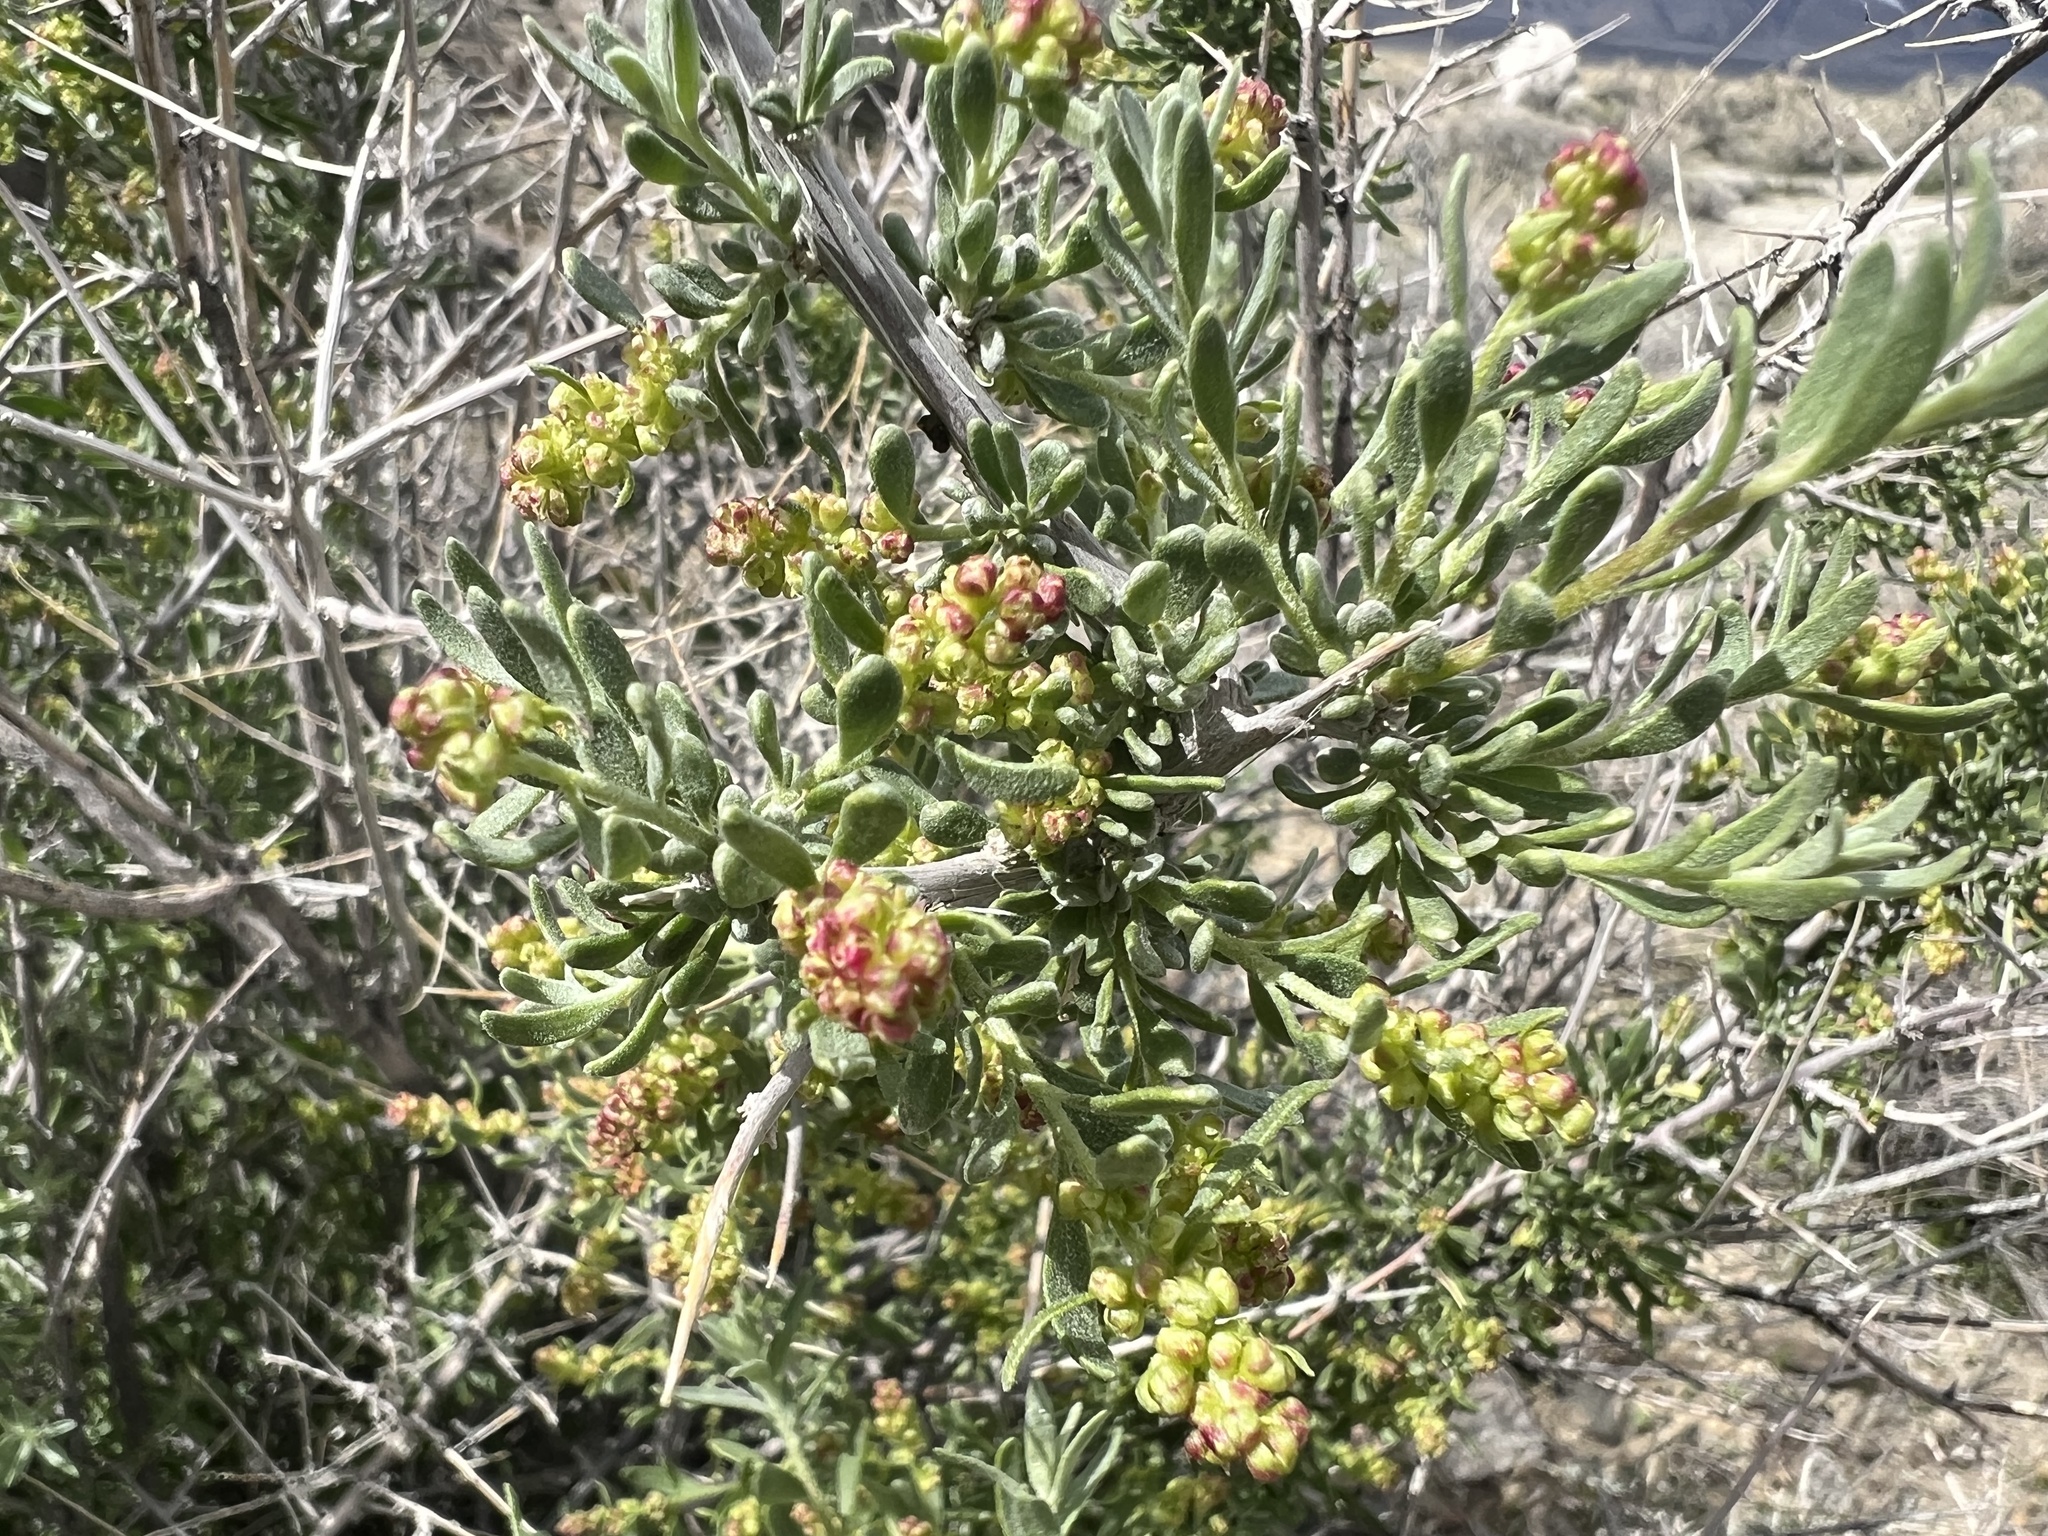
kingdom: Plantae
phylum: Tracheophyta
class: Magnoliopsida
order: Caryophyllales
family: Amaranthaceae
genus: Grayia
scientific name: Grayia spinosa
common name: Spiny hopsage
